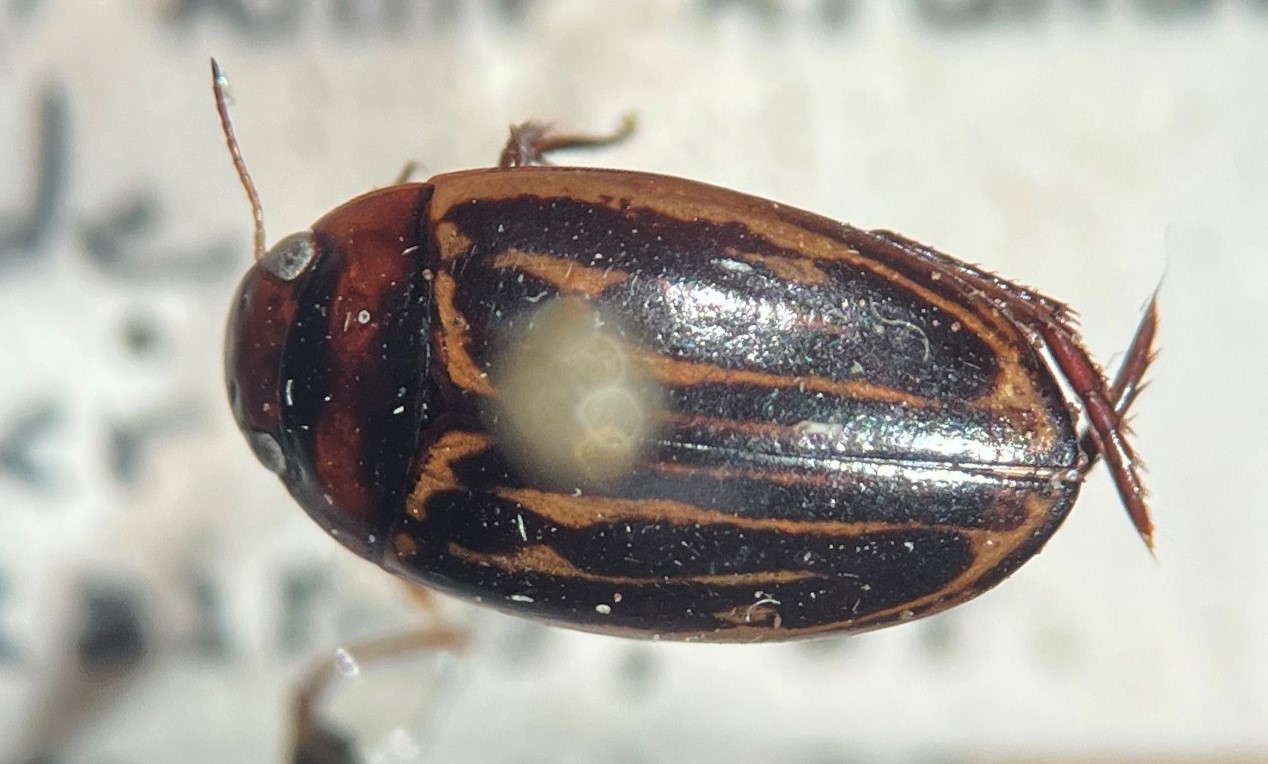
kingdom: Animalia
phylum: Arthropoda
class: Insecta
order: Coleoptera
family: Dytiscidae
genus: Agabus
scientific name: Agabus taeniolatus
